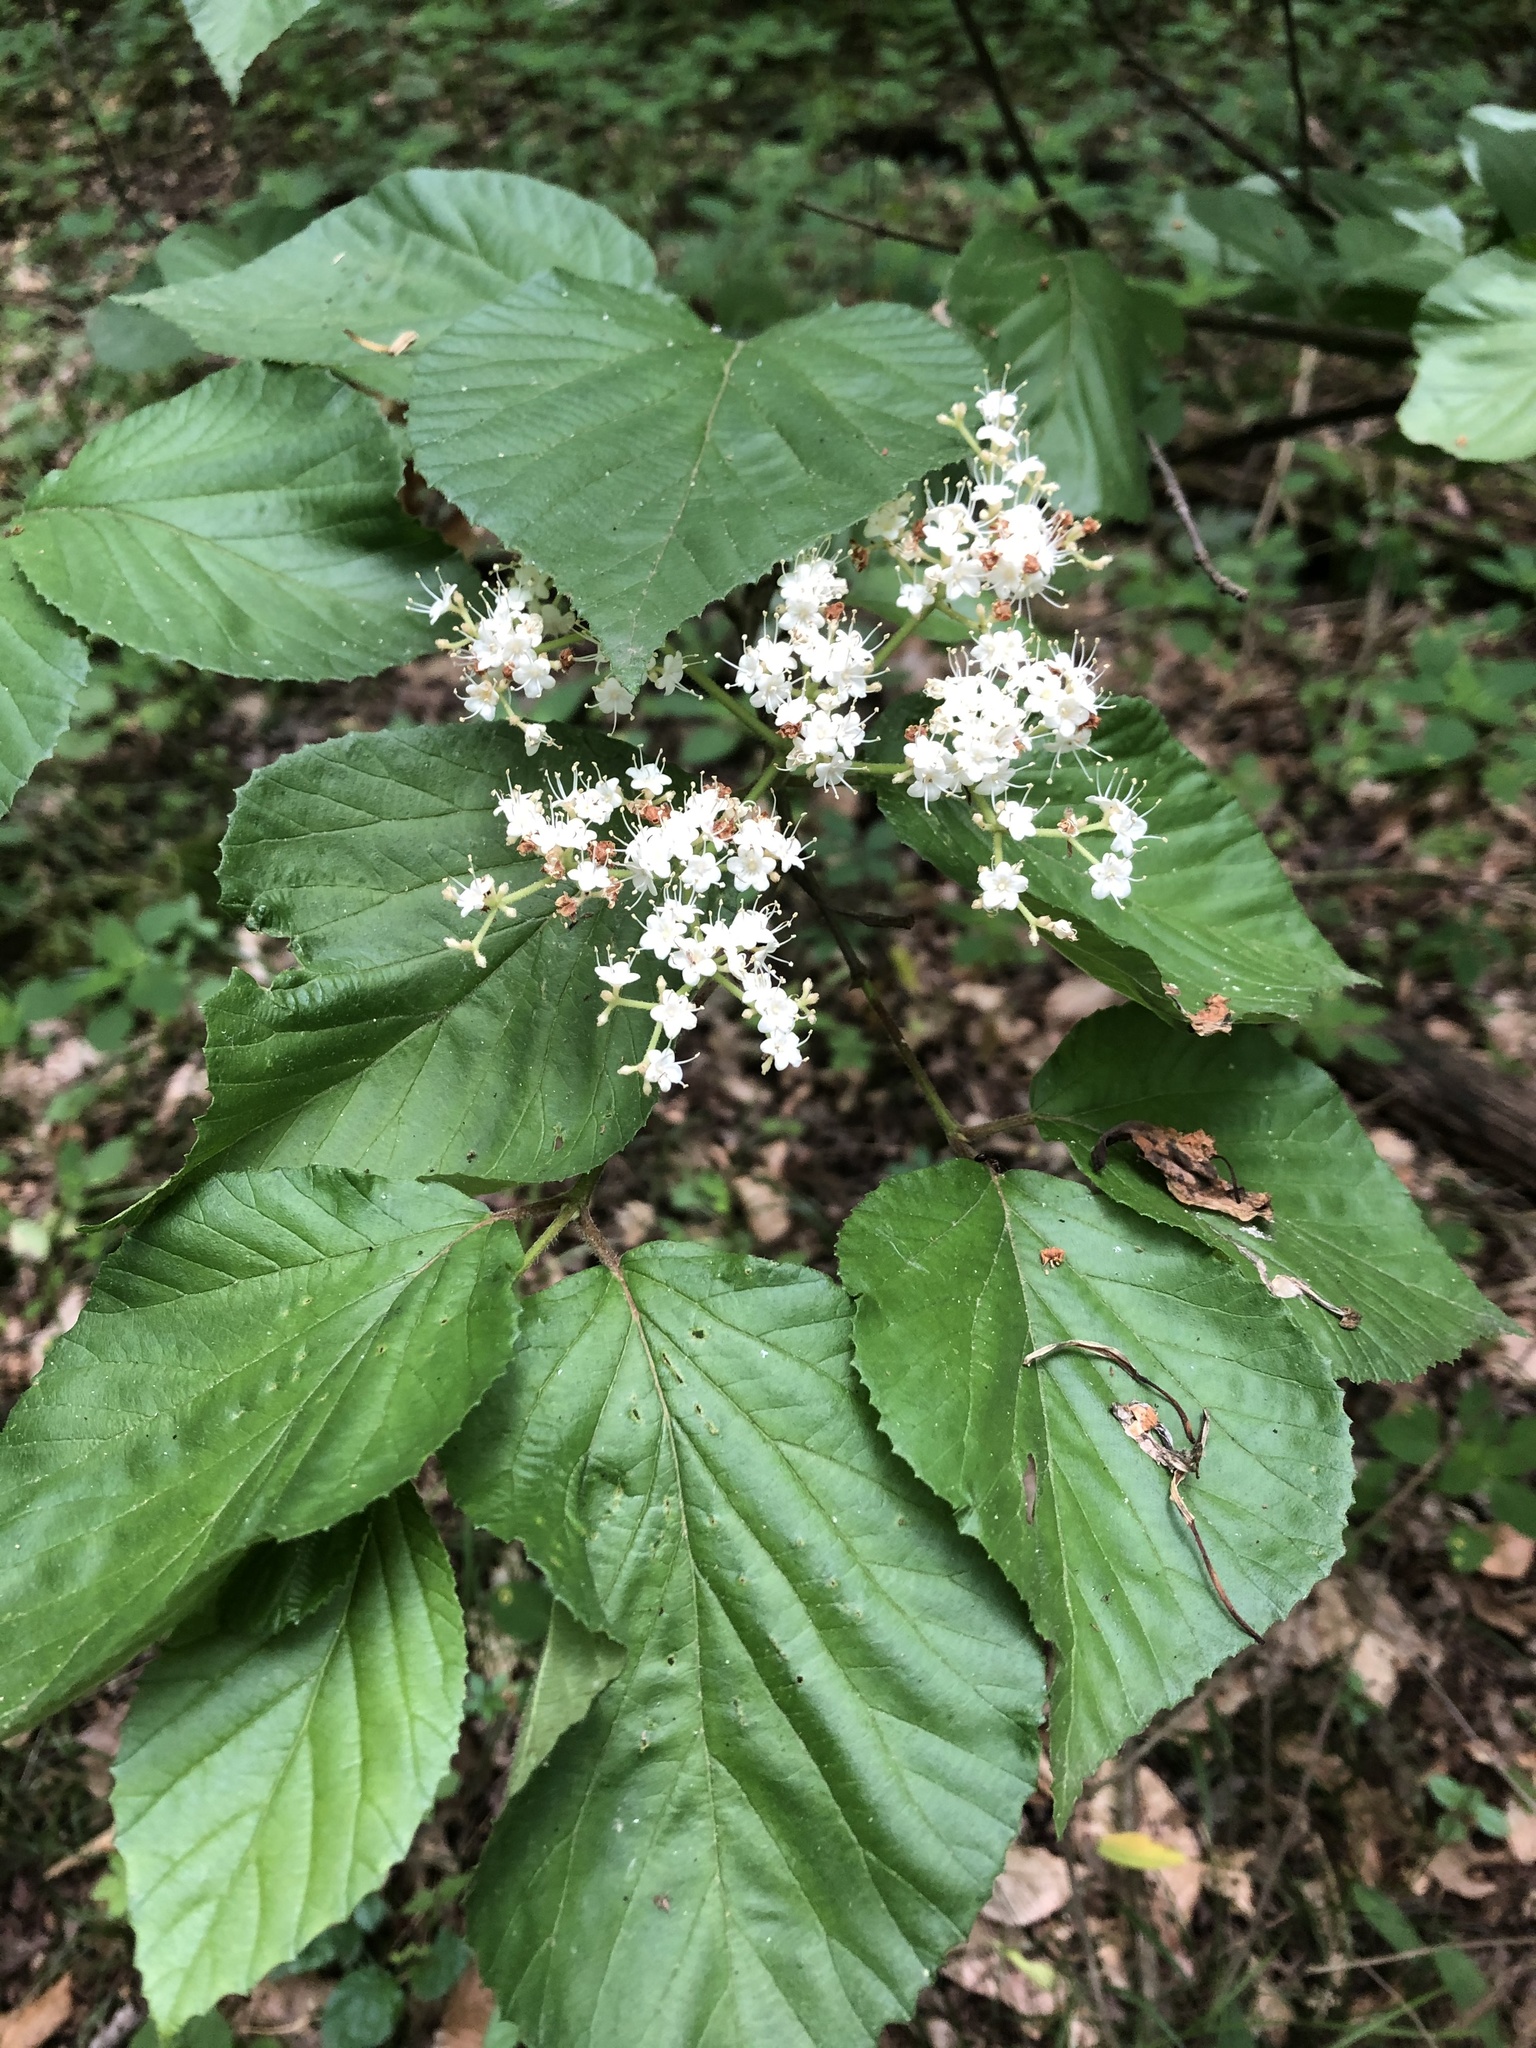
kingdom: Plantae
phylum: Tracheophyta
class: Magnoliopsida
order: Dipsacales
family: Viburnaceae
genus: Viburnum
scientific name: Viburnum dilatatum
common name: Linden arrowwood
